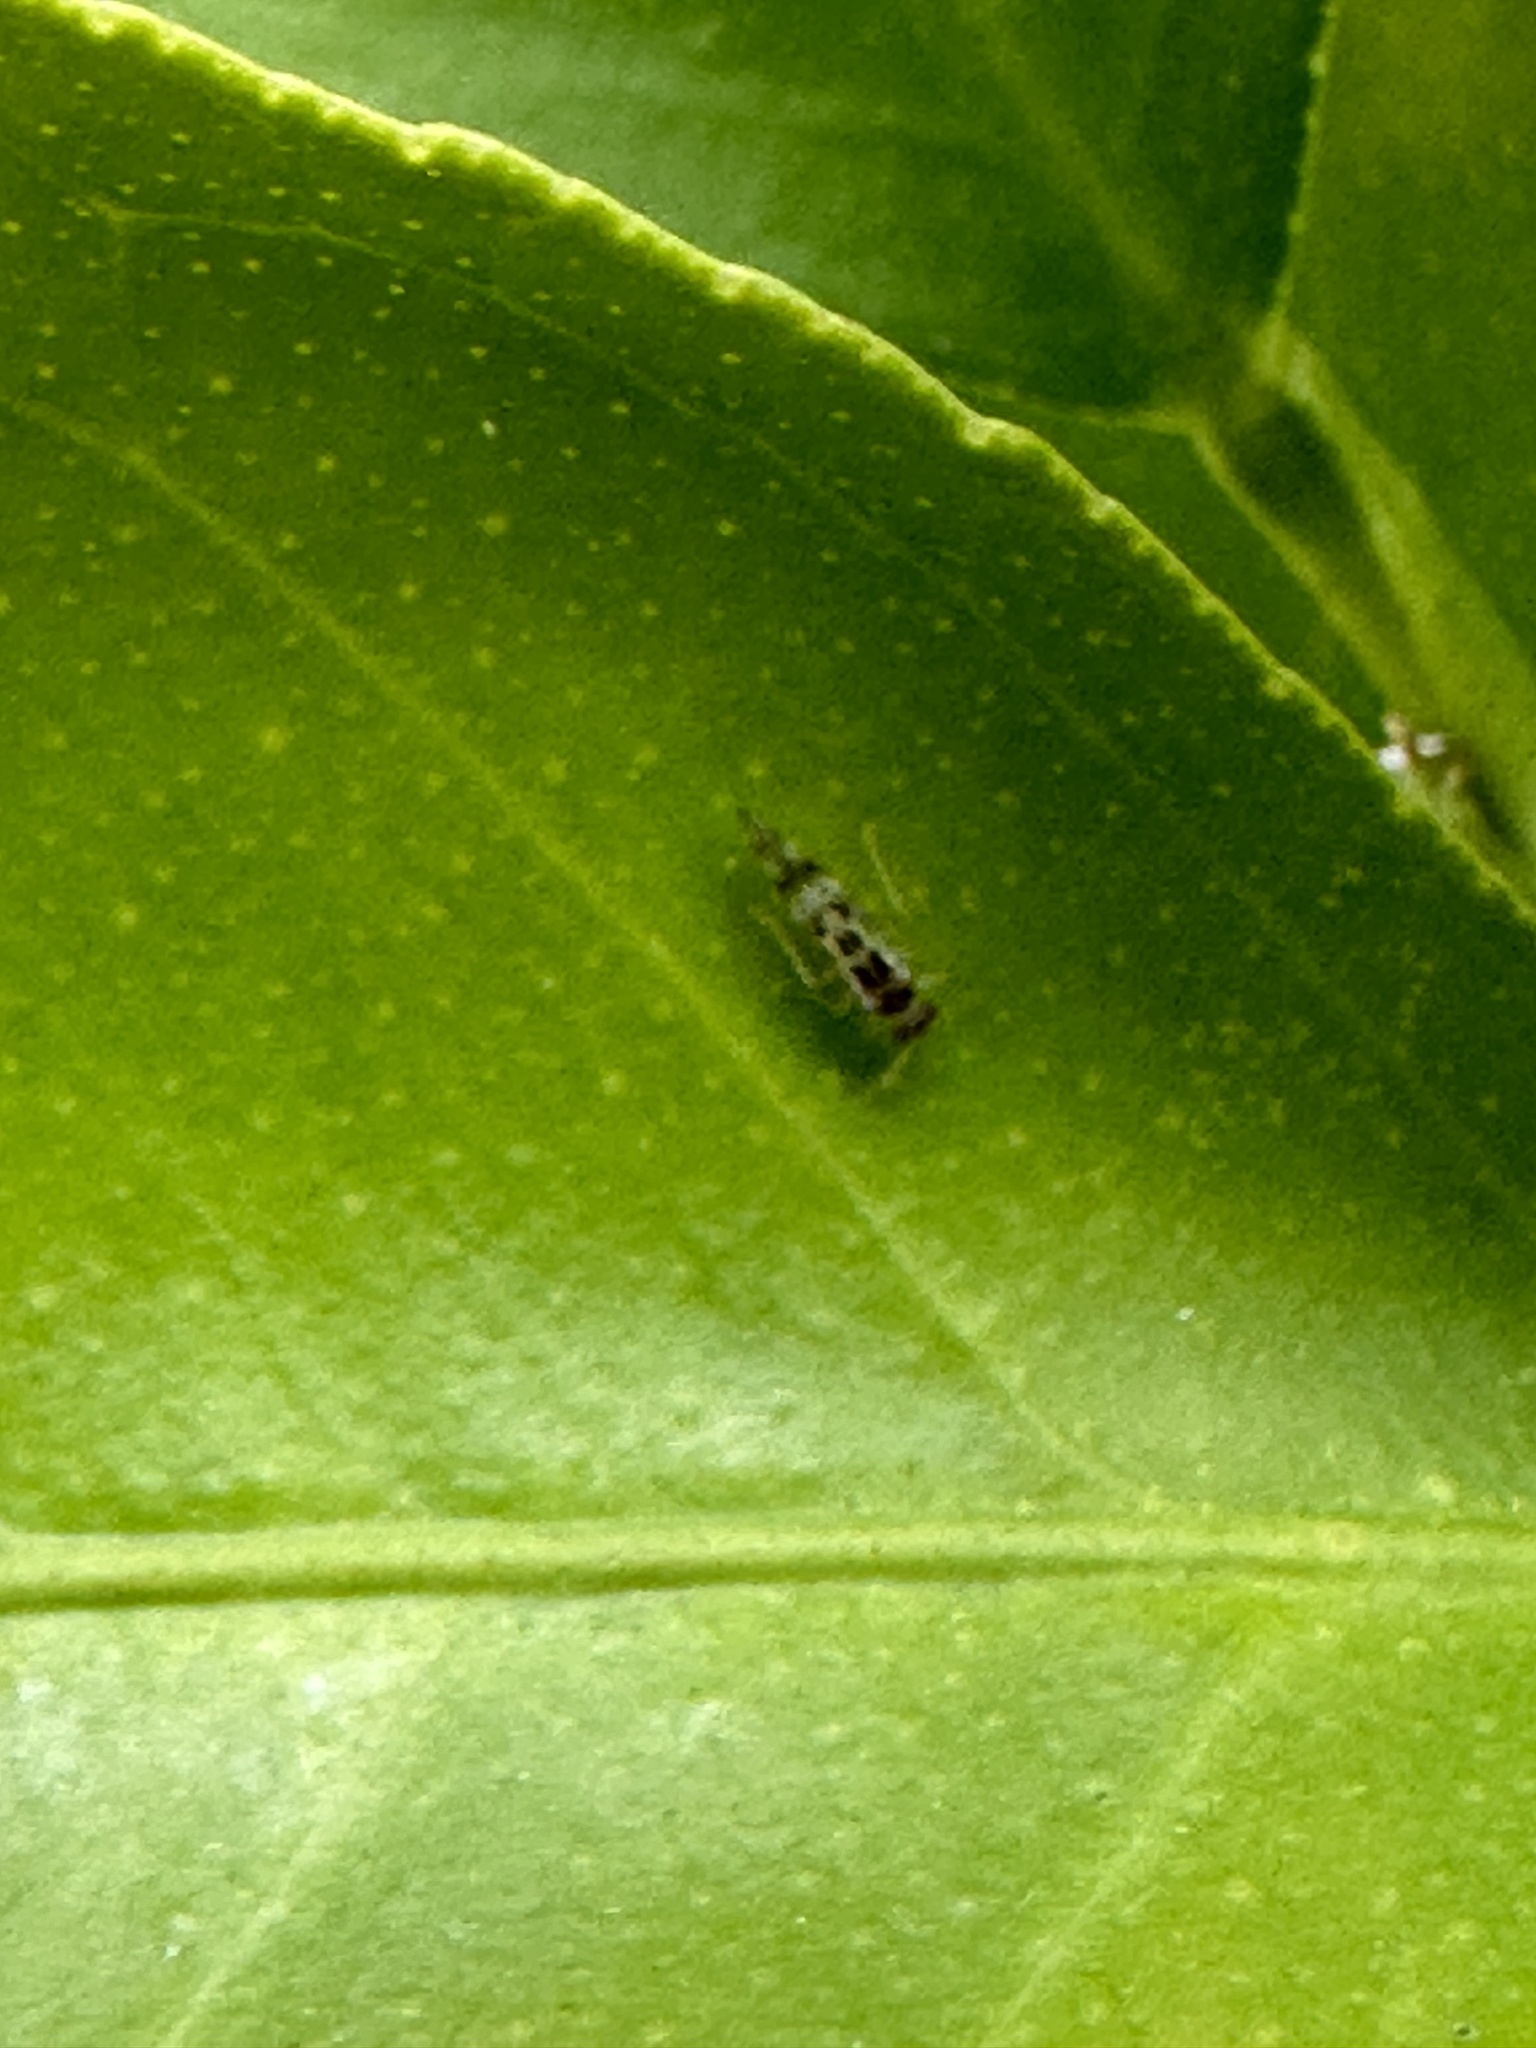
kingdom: Animalia
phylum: Arthropoda
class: Insecta
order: Psocodea
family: Stenopsocidae
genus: Graphopsocus
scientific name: Graphopsocus cruciatus
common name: Lizard bark louse
